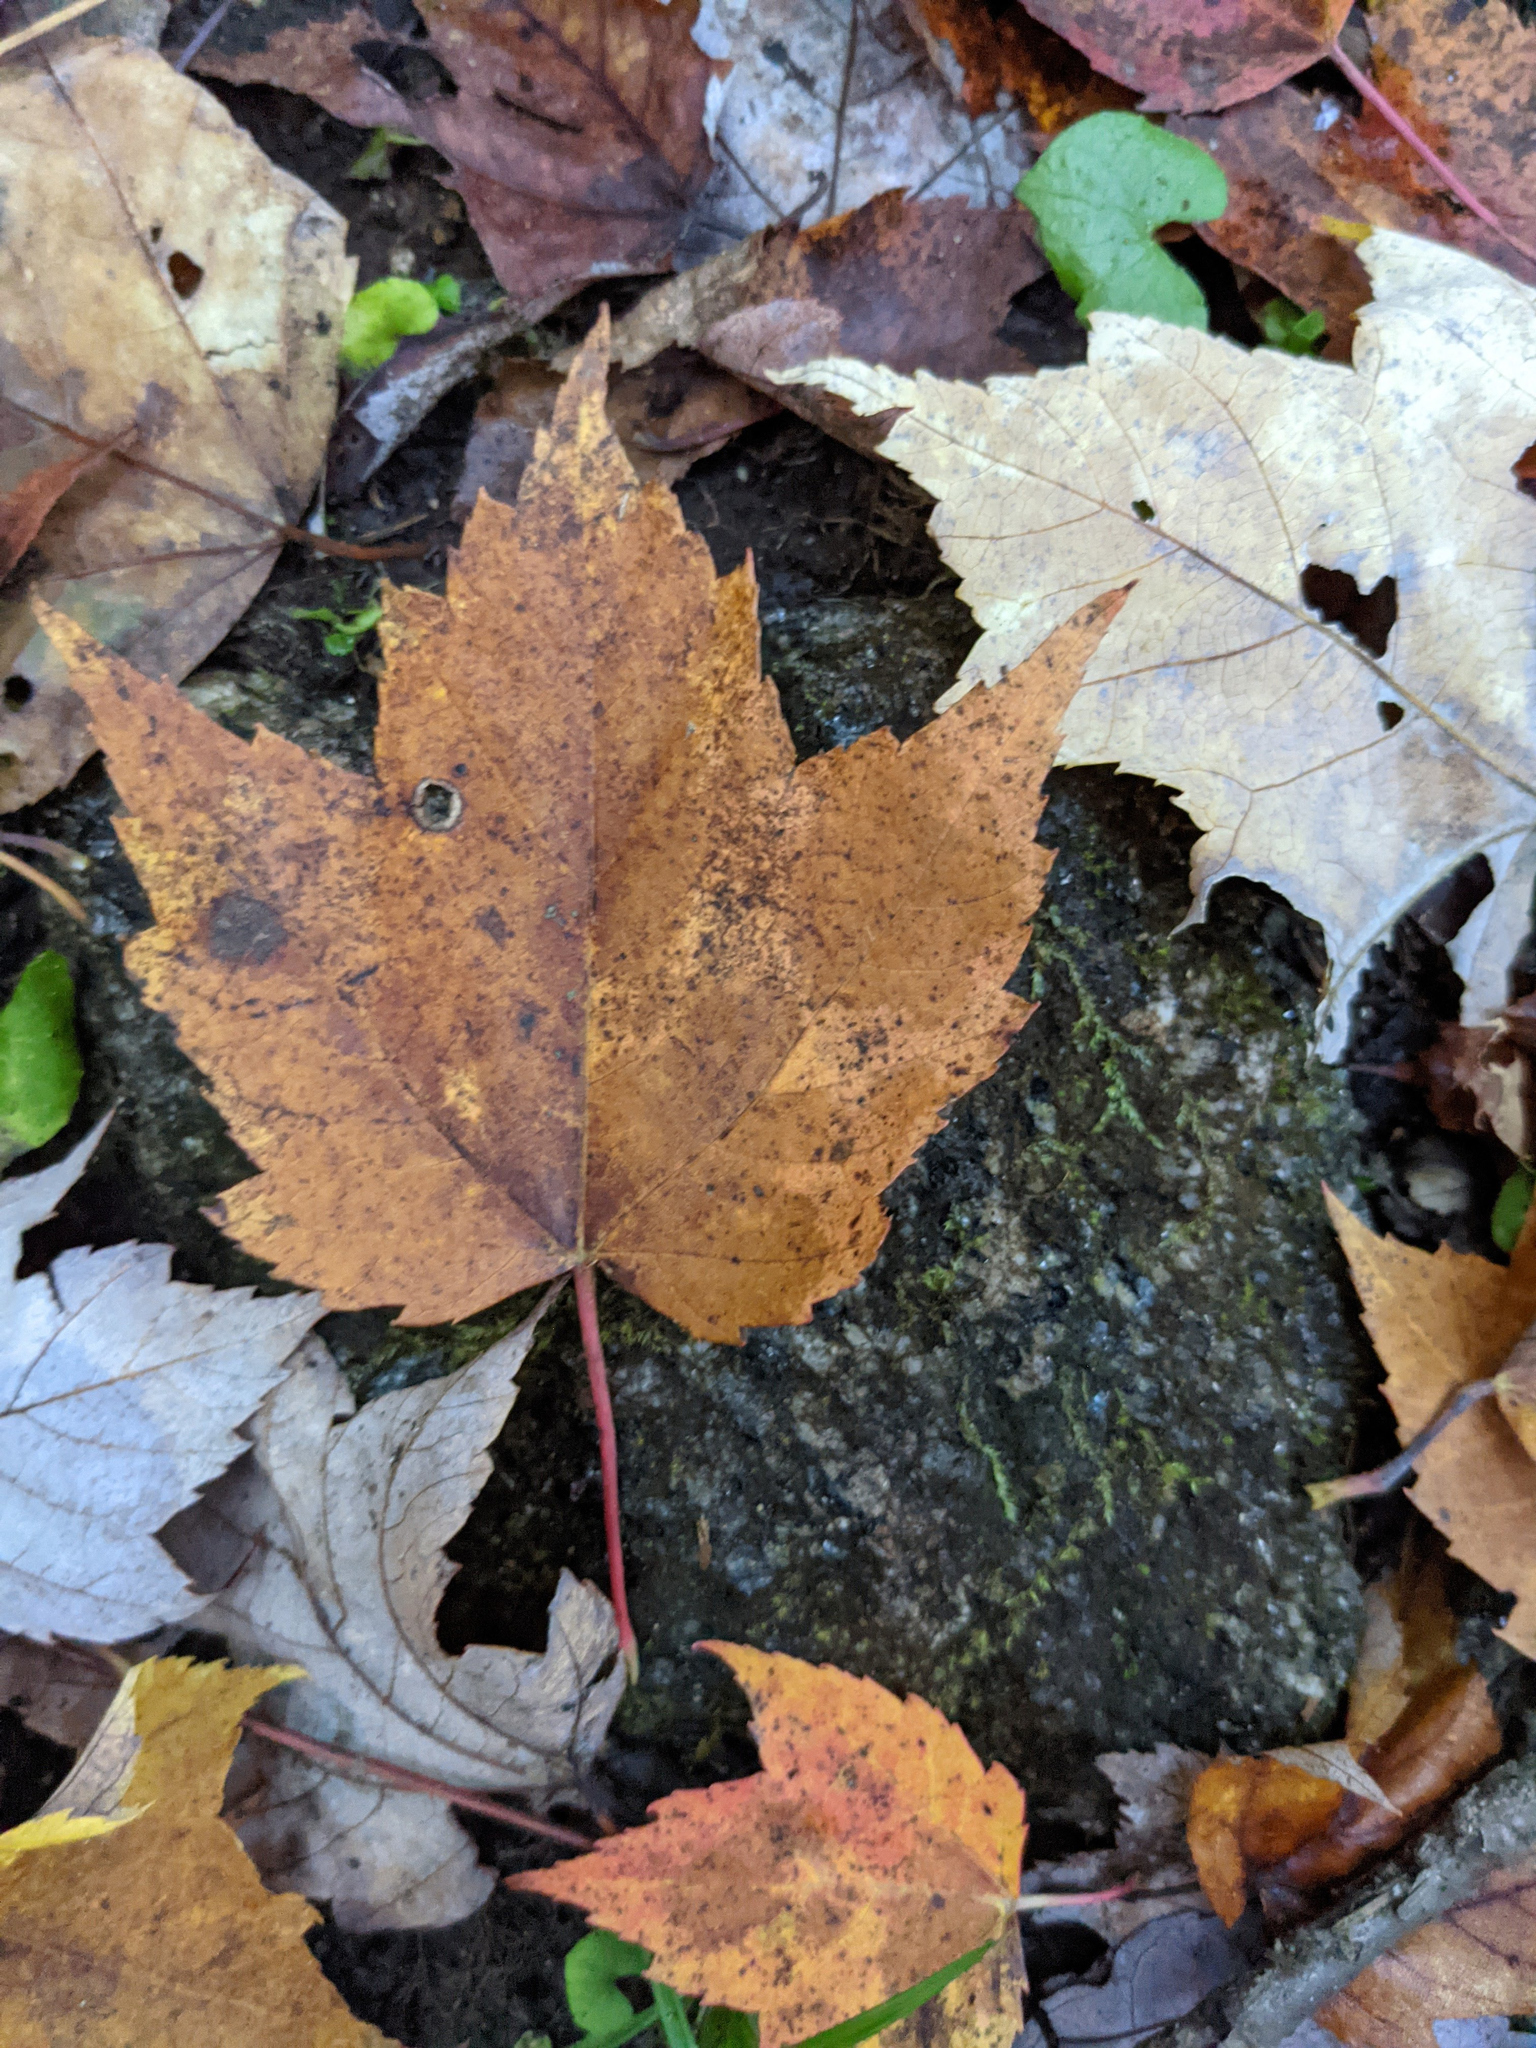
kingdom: Plantae
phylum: Tracheophyta
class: Magnoliopsida
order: Sapindales
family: Sapindaceae
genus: Acer
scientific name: Acer rubrum
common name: Red maple
